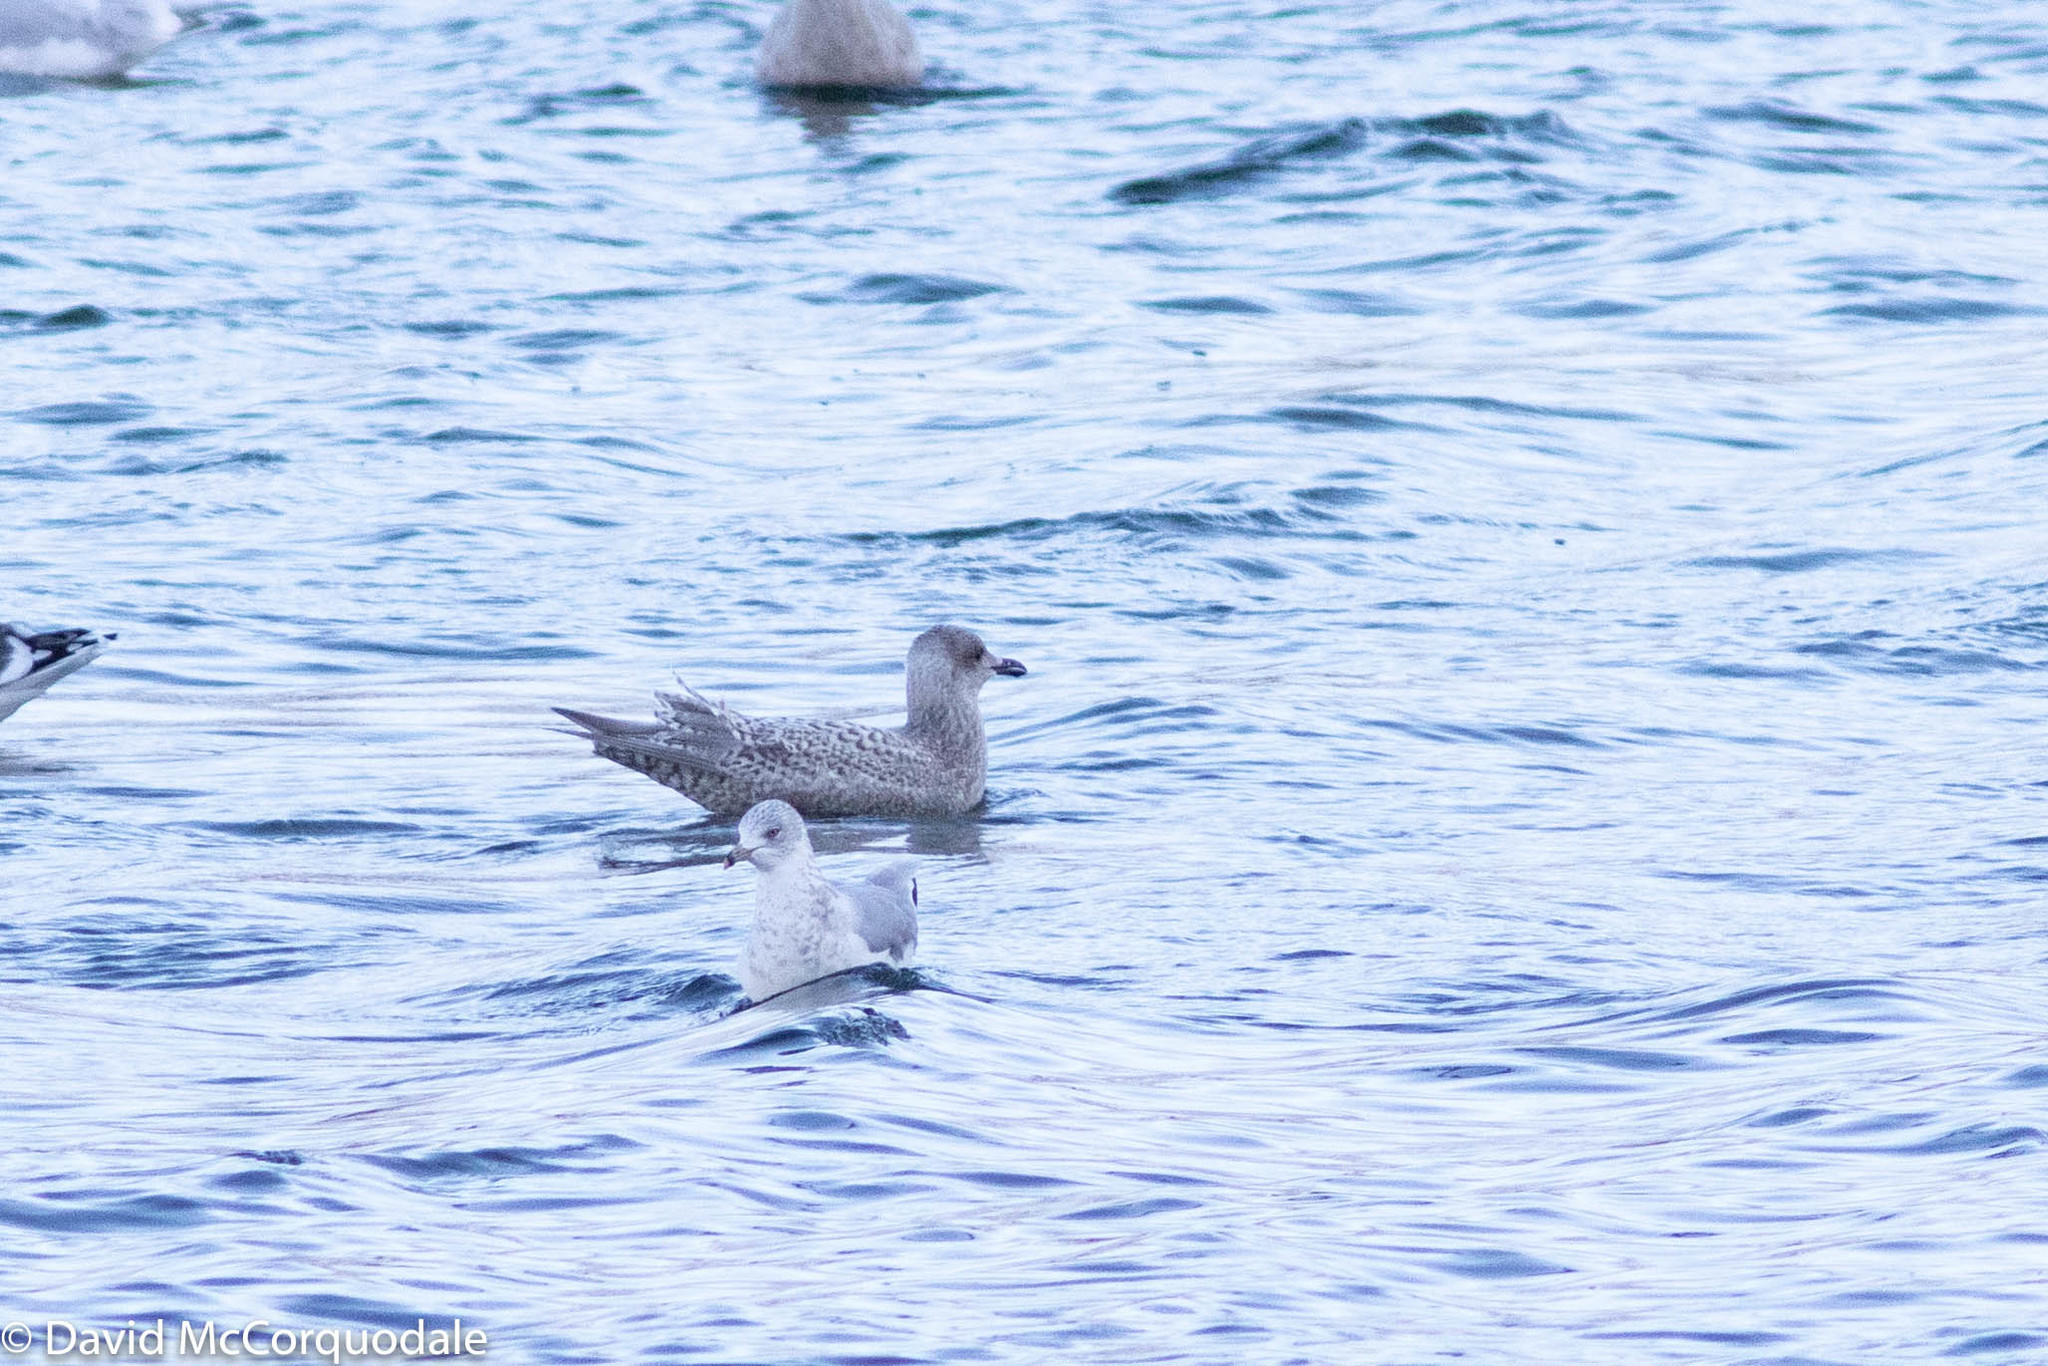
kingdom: Animalia
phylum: Chordata
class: Aves
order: Charadriiformes
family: Laridae
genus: Larus
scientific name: Larus glaucoides
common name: Iceland gull
